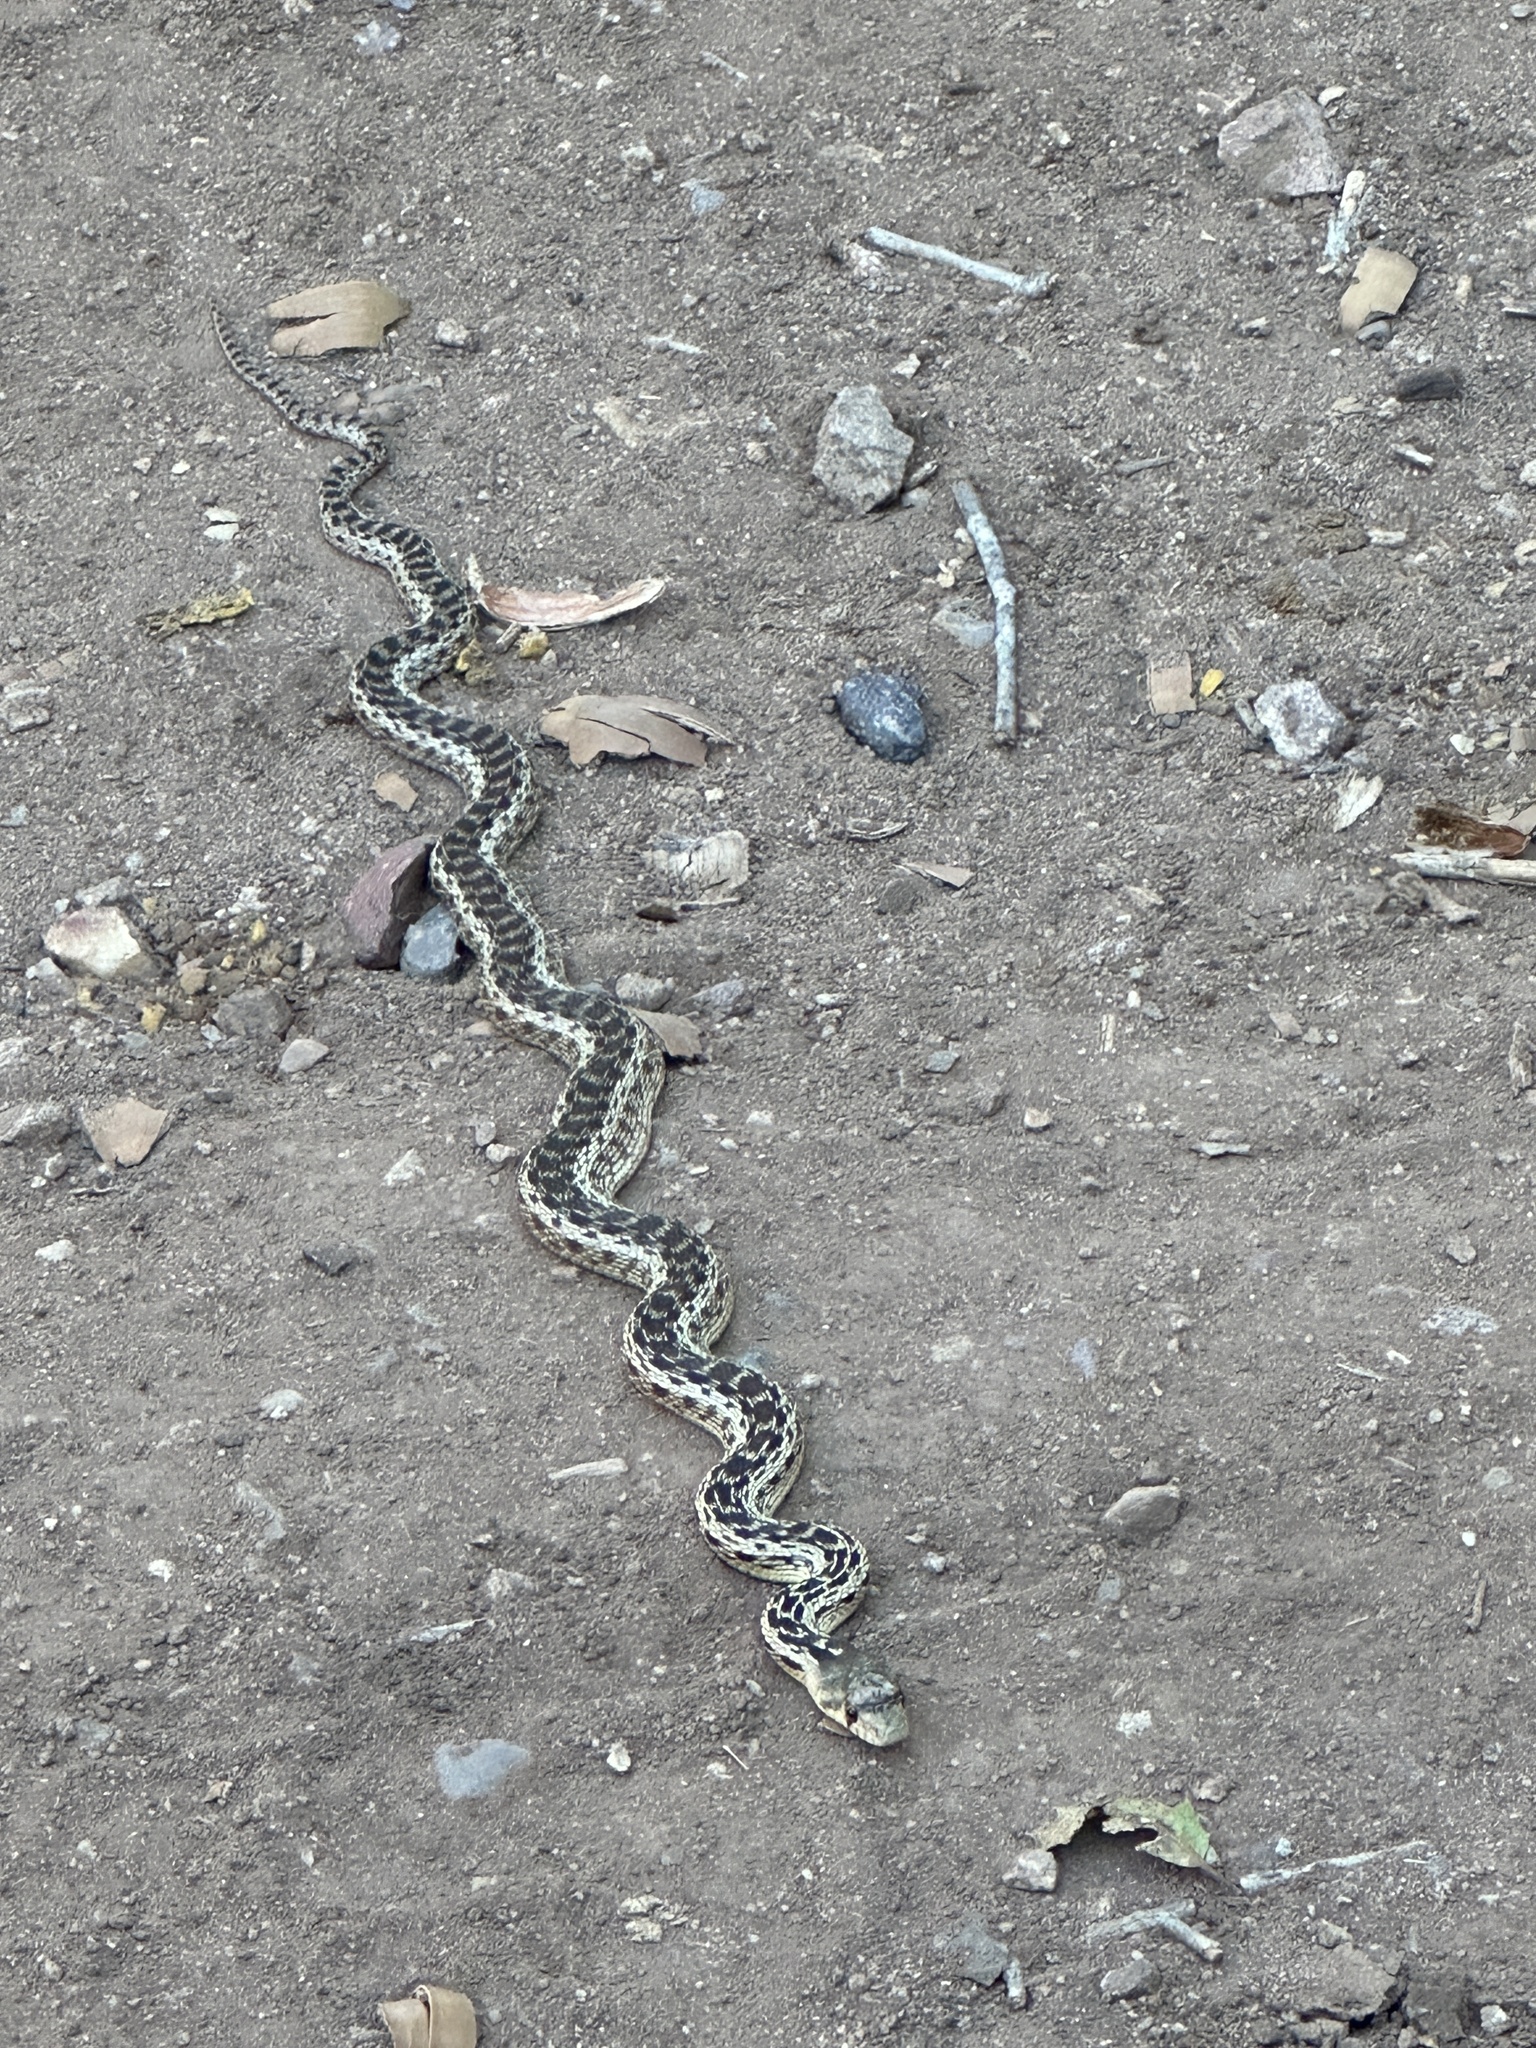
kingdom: Animalia
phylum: Chordata
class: Squamata
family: Colubridae
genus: Pituophis
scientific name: Pituophis catenifer
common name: Gopher snake
